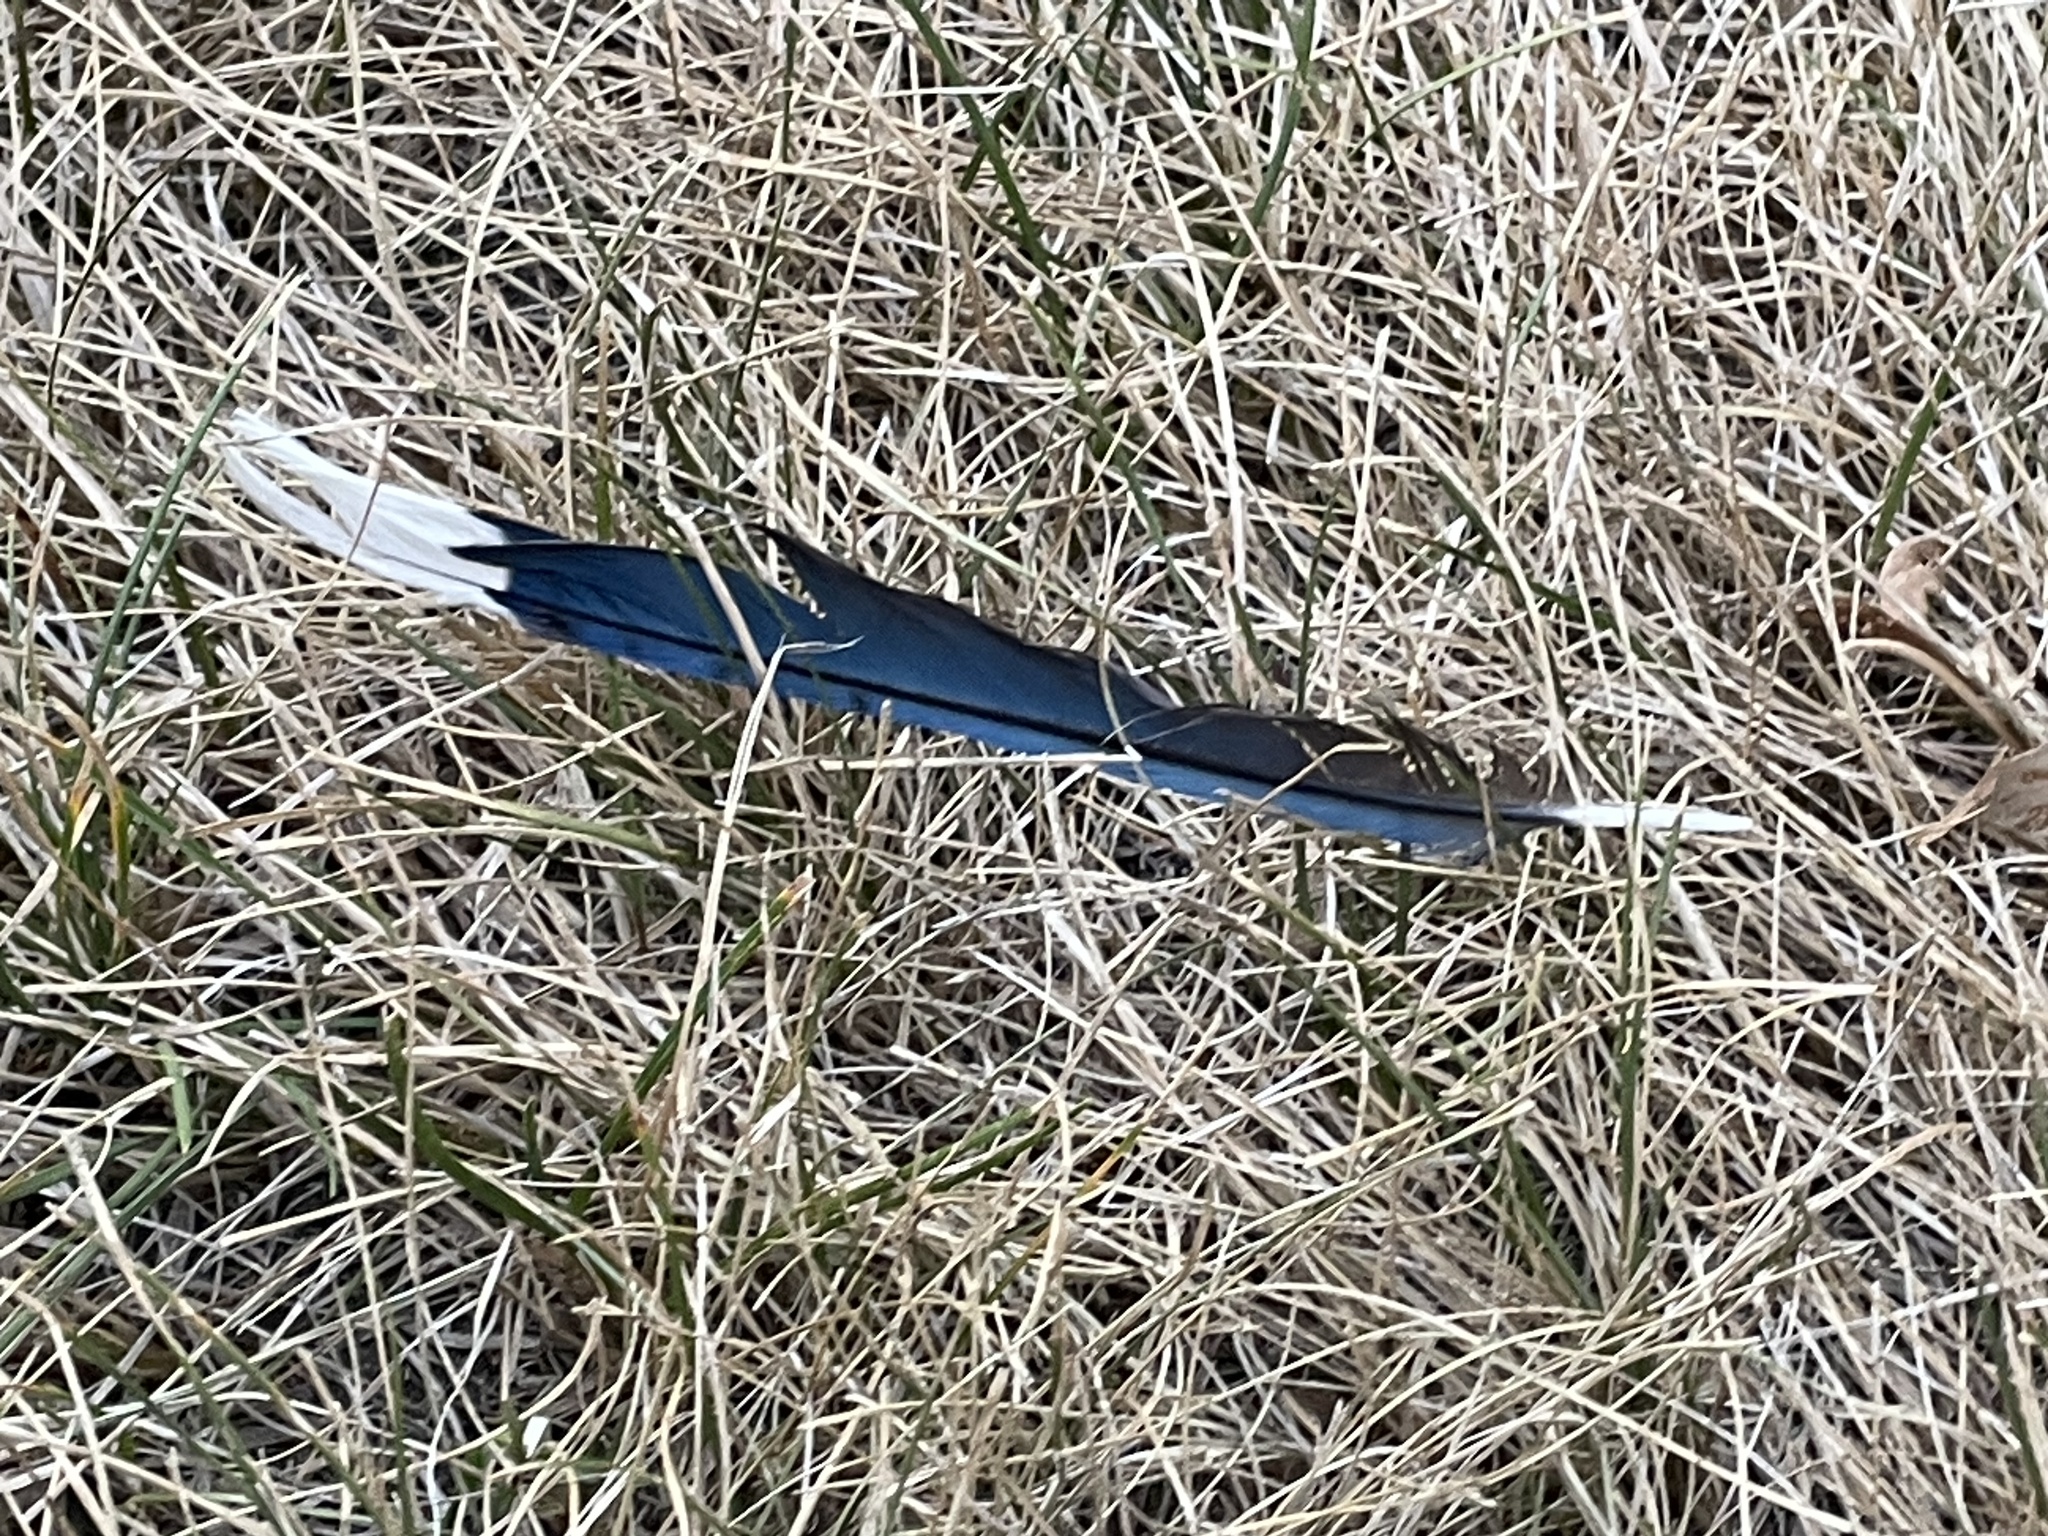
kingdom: Animalia
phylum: Chordata
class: Aves
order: Passeriformes
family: Corvidae
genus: Cyanocitta
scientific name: Cyanocitta cristata
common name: Blue jay
